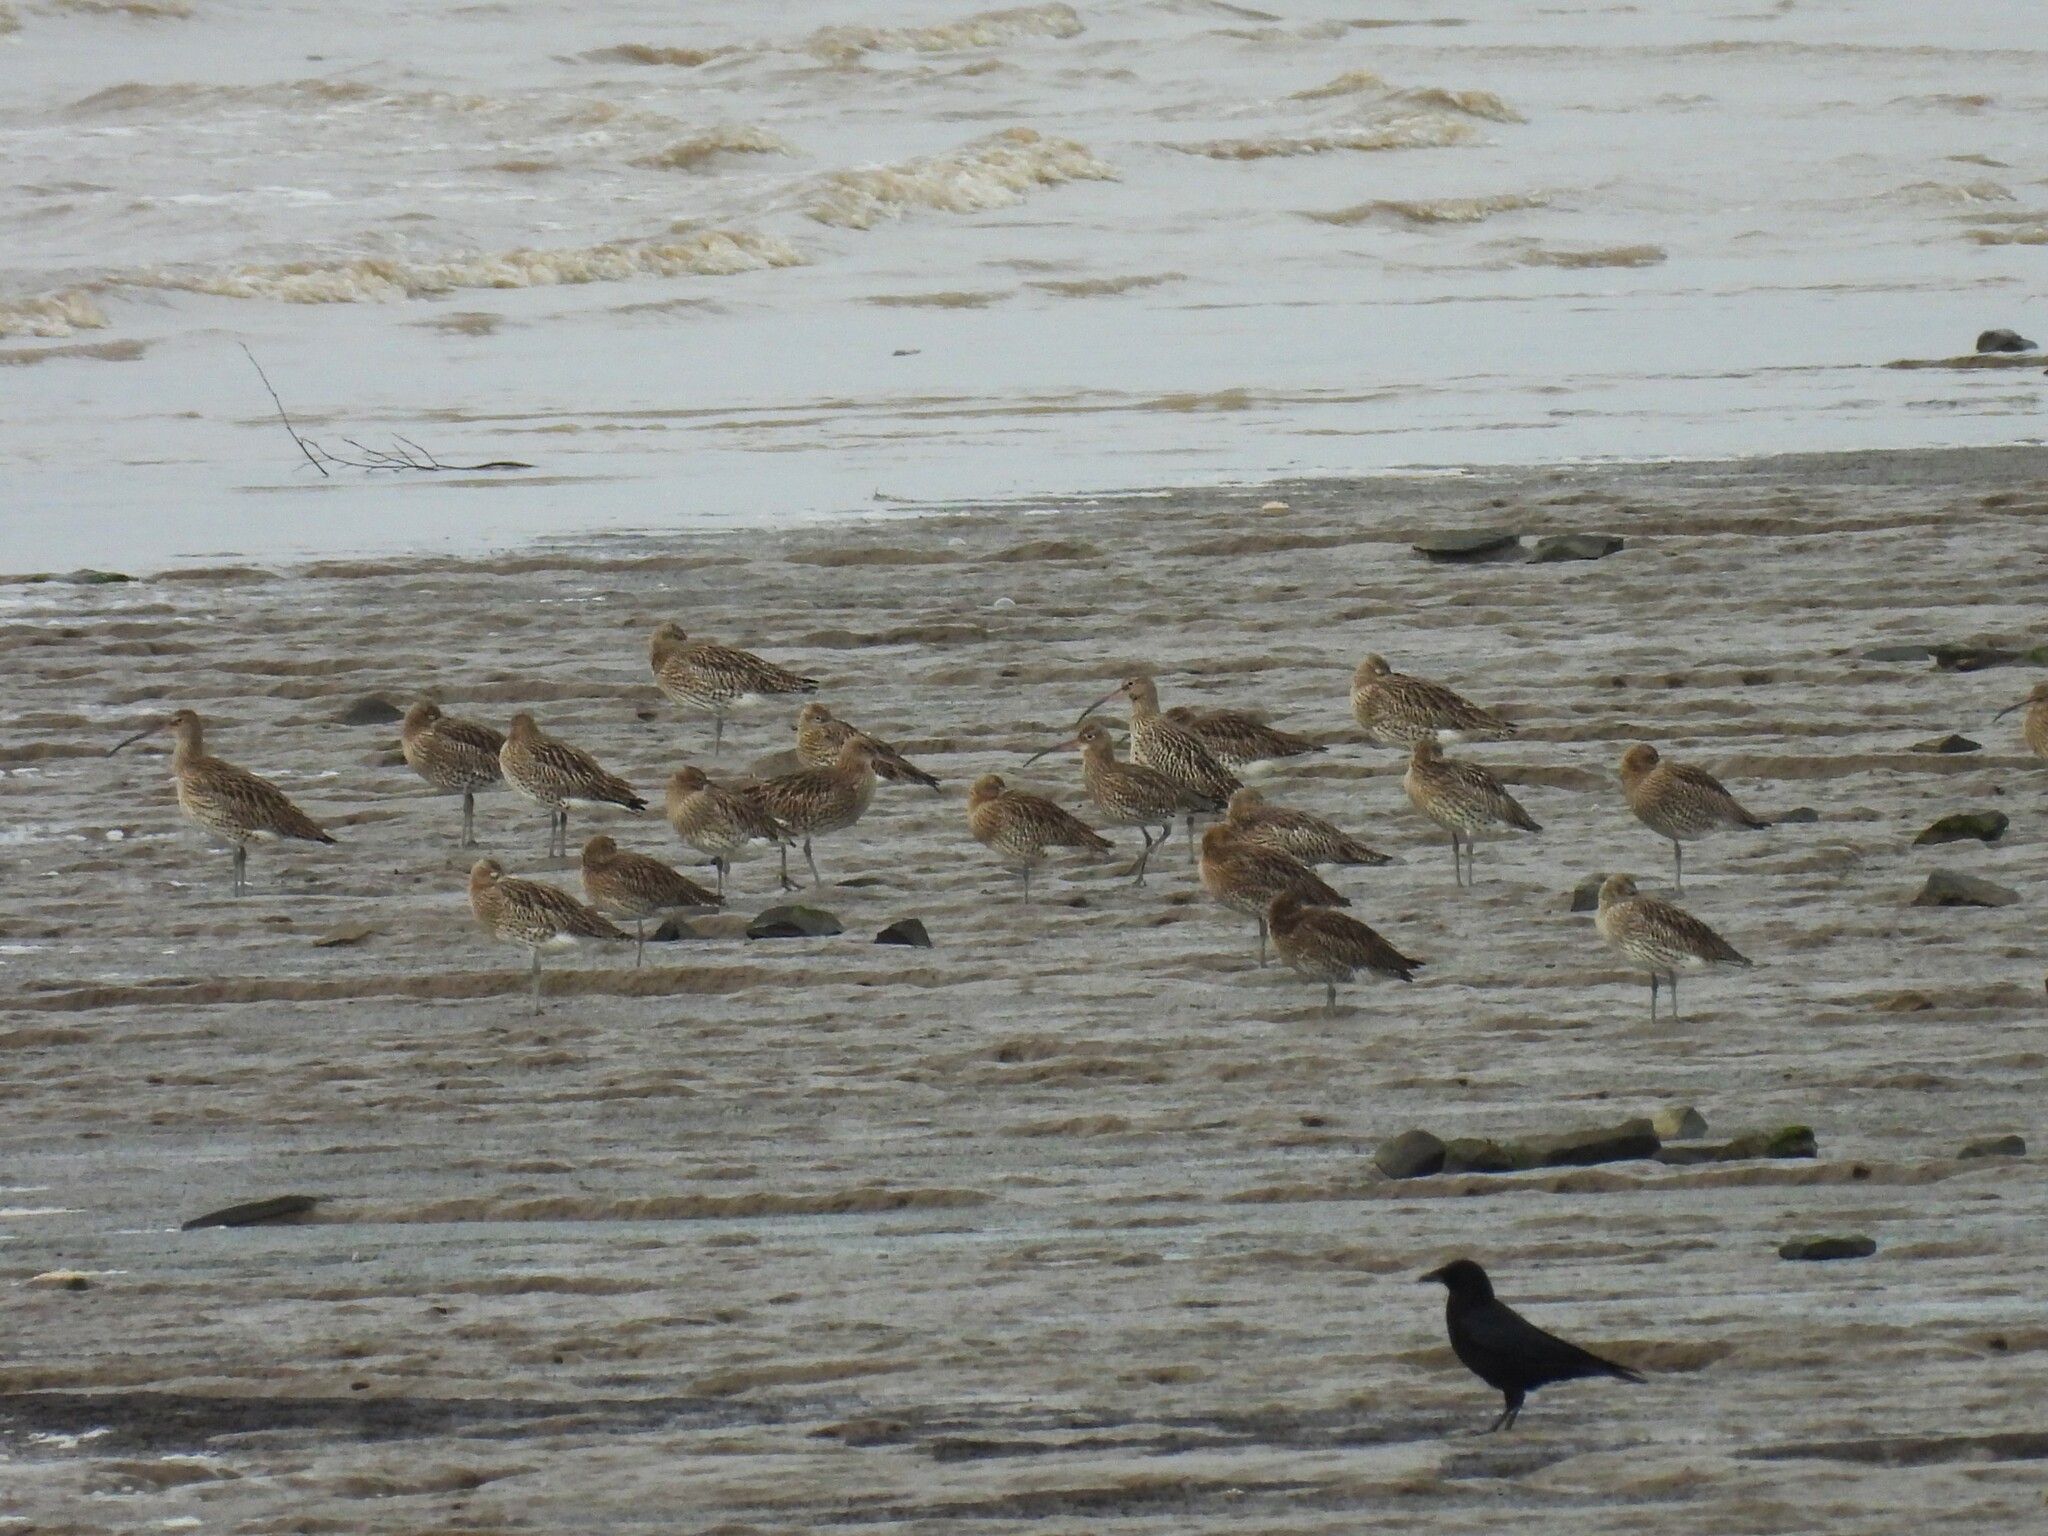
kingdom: Animalia
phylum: Chordata
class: Aves
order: Charadriiformes
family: Scolopacidae
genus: Numenius
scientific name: Numenius arquata
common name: Eurasian curlew
